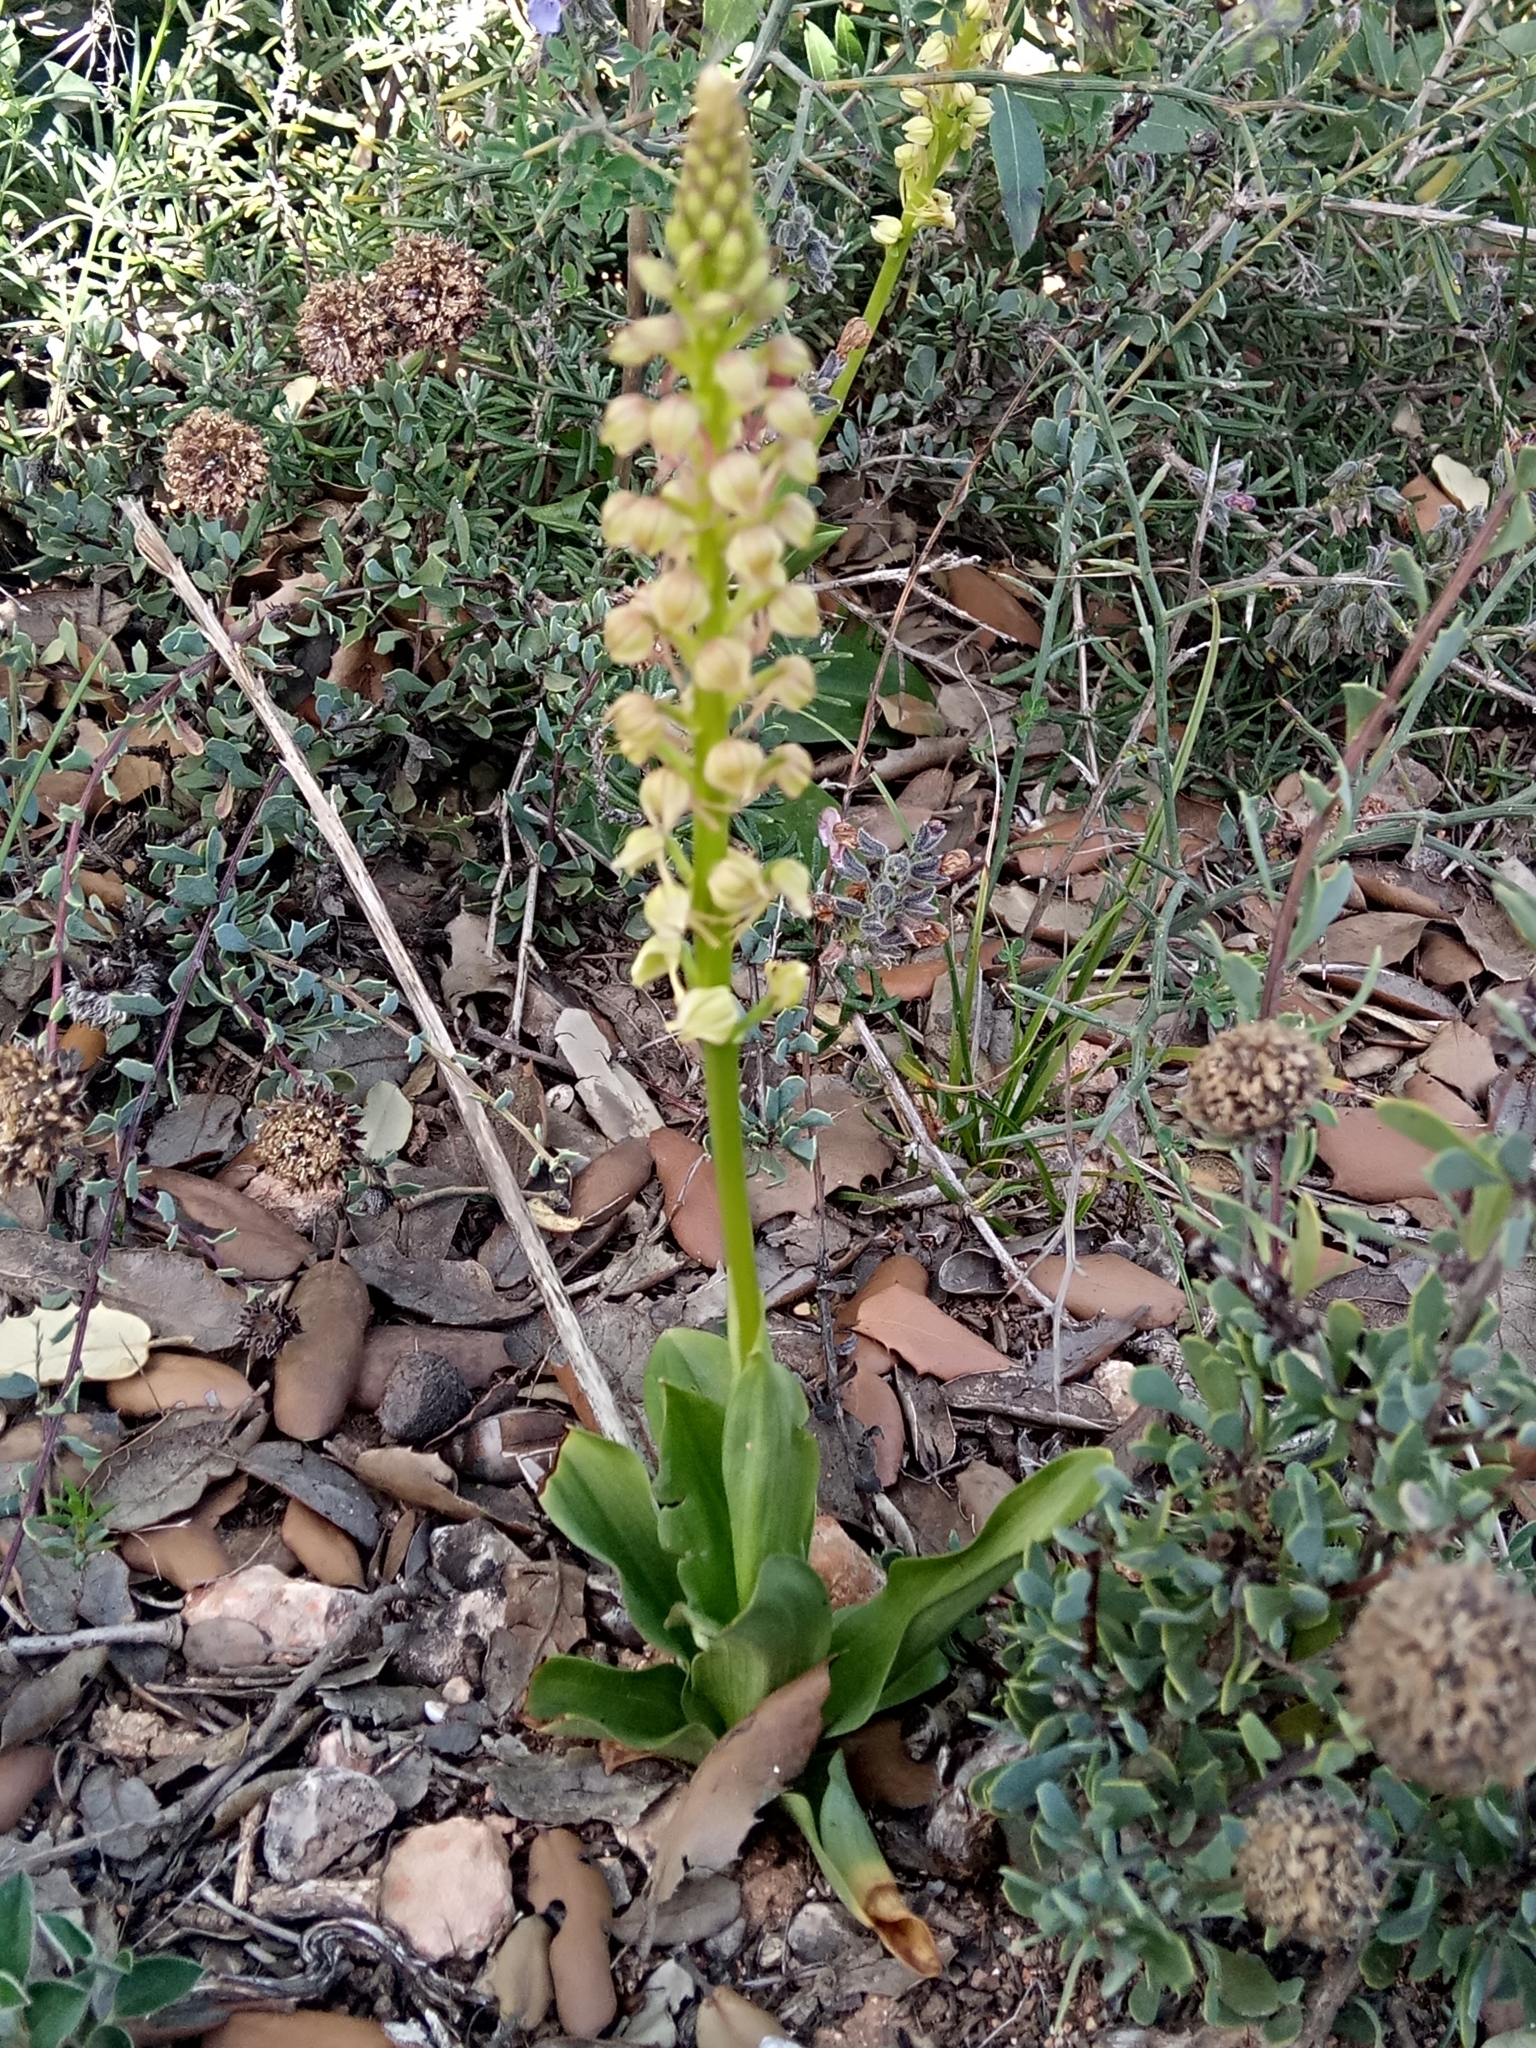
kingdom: Plantae
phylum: Tracheophyta
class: Liliopsida
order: Asparagales
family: Orchidaceae
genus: Orchis
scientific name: Orchis anthropophora
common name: Man orchid
